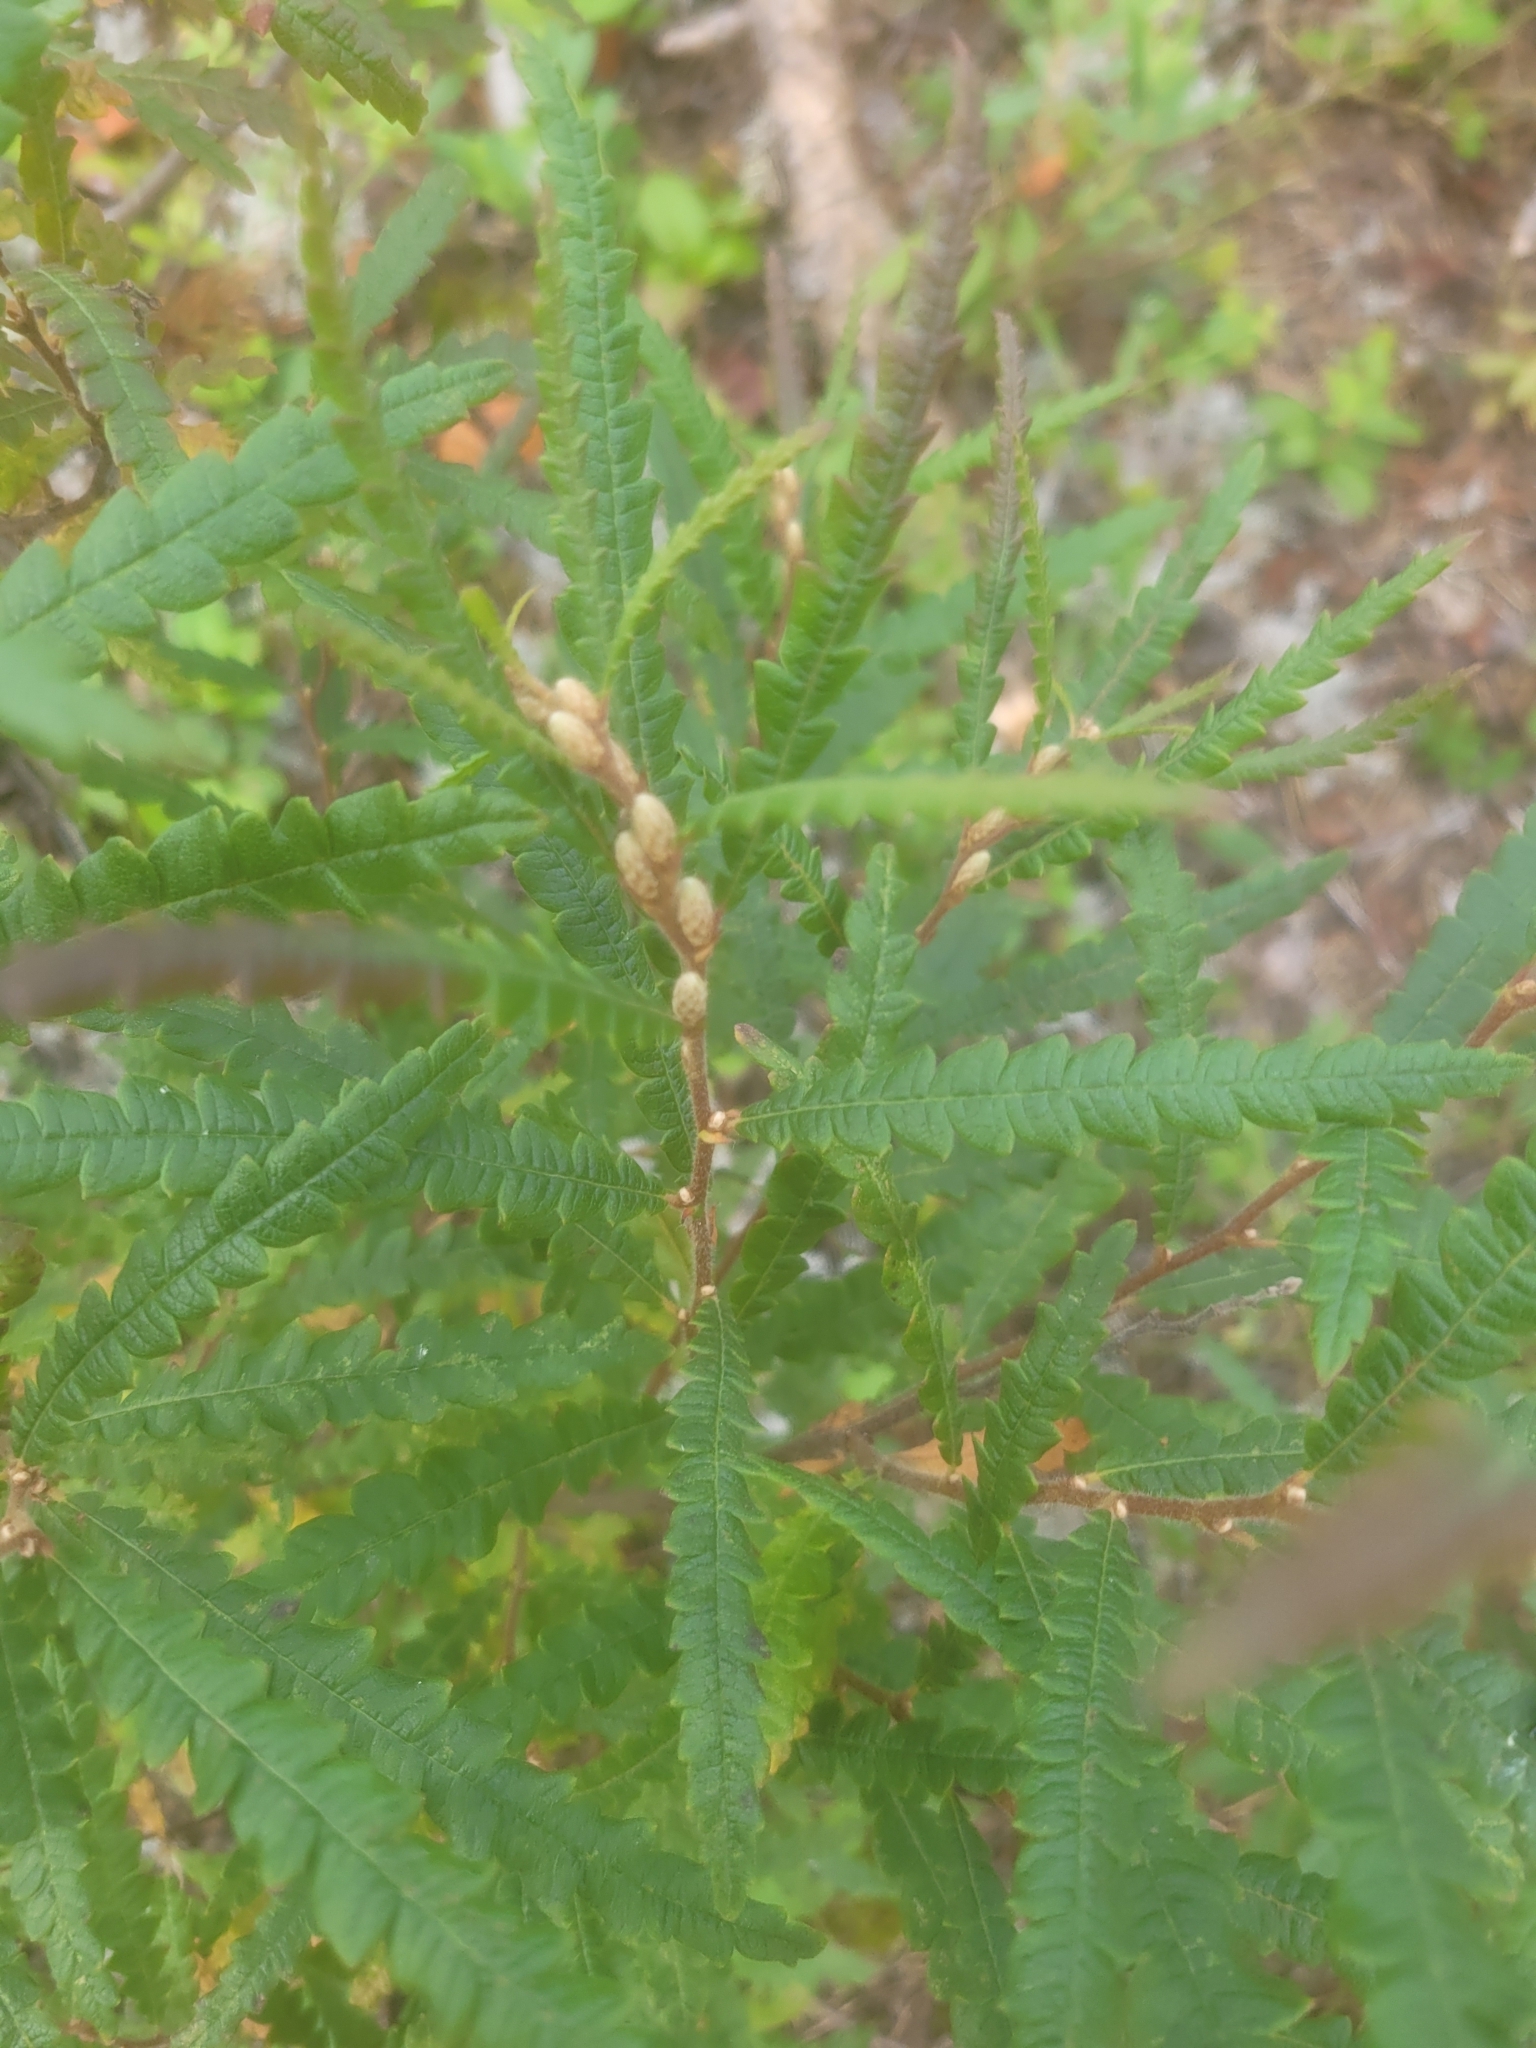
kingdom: Plantae
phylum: Tracheophyta
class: Magnoliopsida
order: Fagales
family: Myricaceae
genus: Comptonia
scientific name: Comptonia peregrina
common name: Sweet-fern
